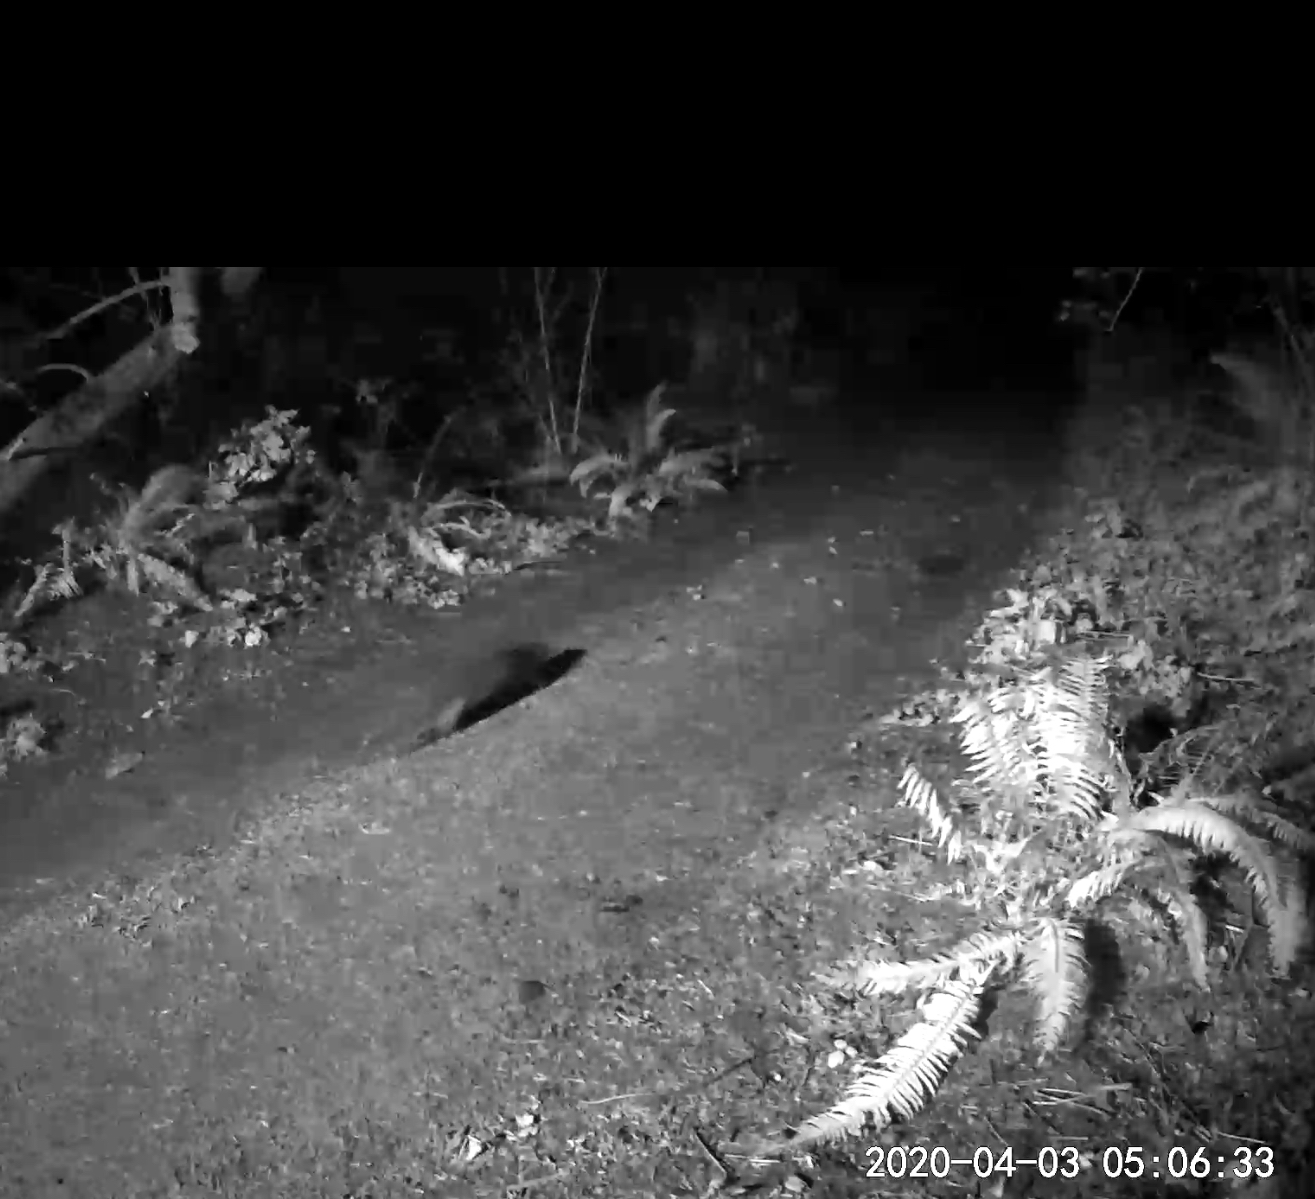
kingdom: Animalia
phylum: Chordata
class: Mammalia
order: Carnivora
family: Mustelidae
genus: Lontra
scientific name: Lontra canadensis
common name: North american river otter
